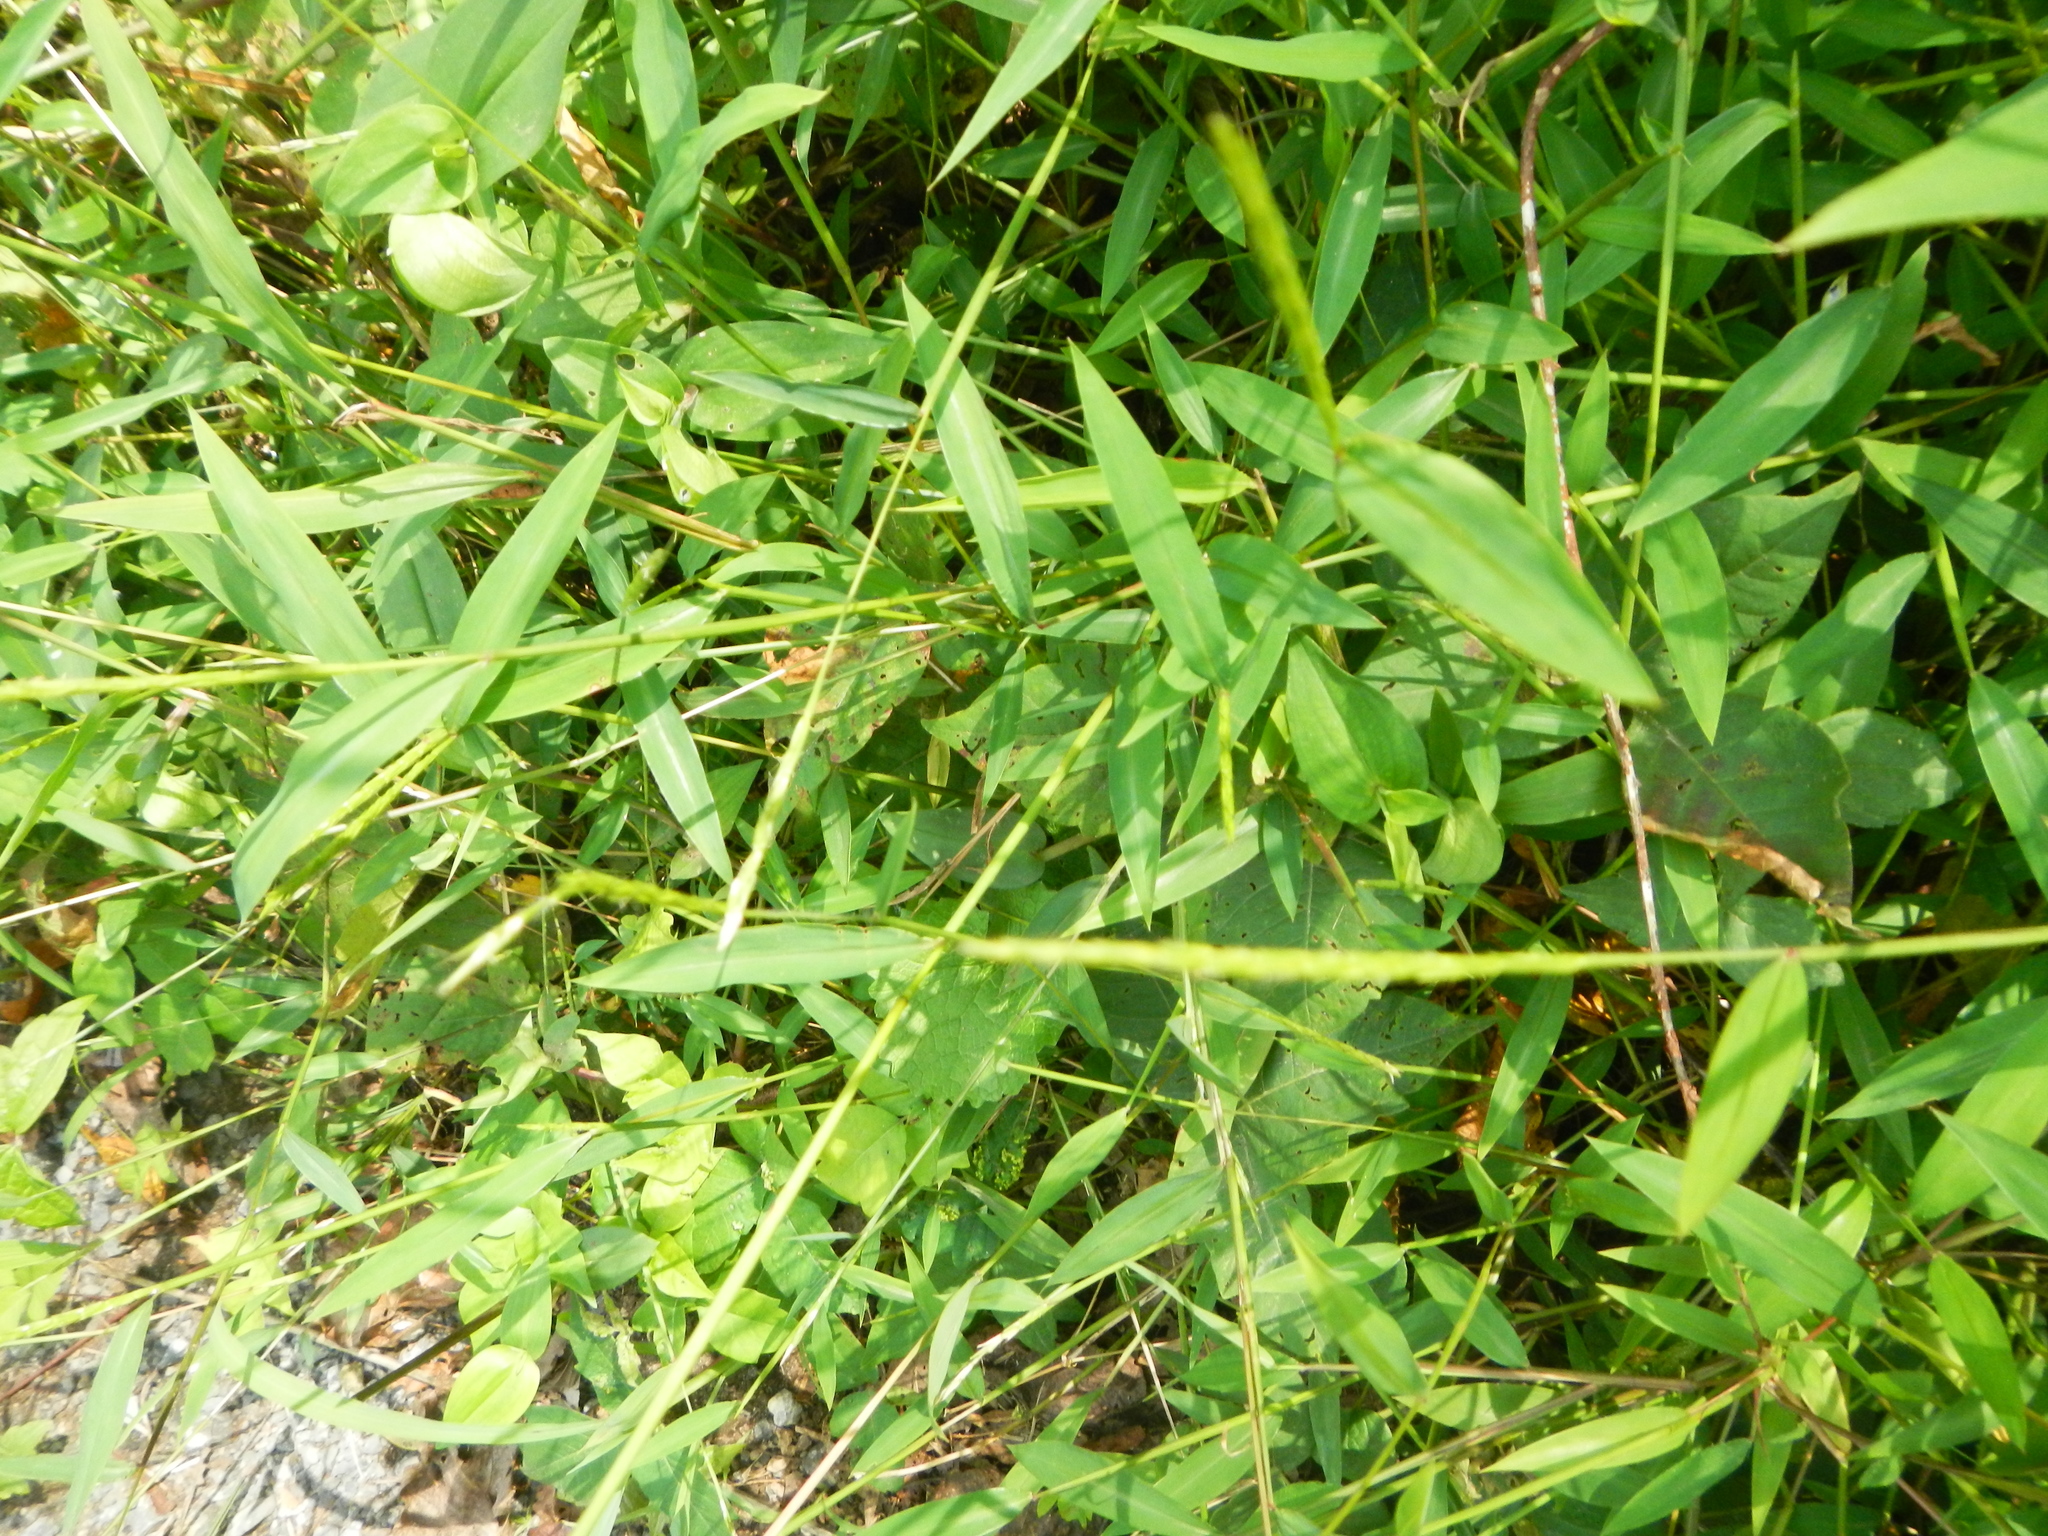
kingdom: Plantae
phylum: Tracheophyta
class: Liliopsida
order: Poales
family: Poaceae
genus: Microstegium
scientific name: Microstegium vimineum
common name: Japanese stiltgrass
